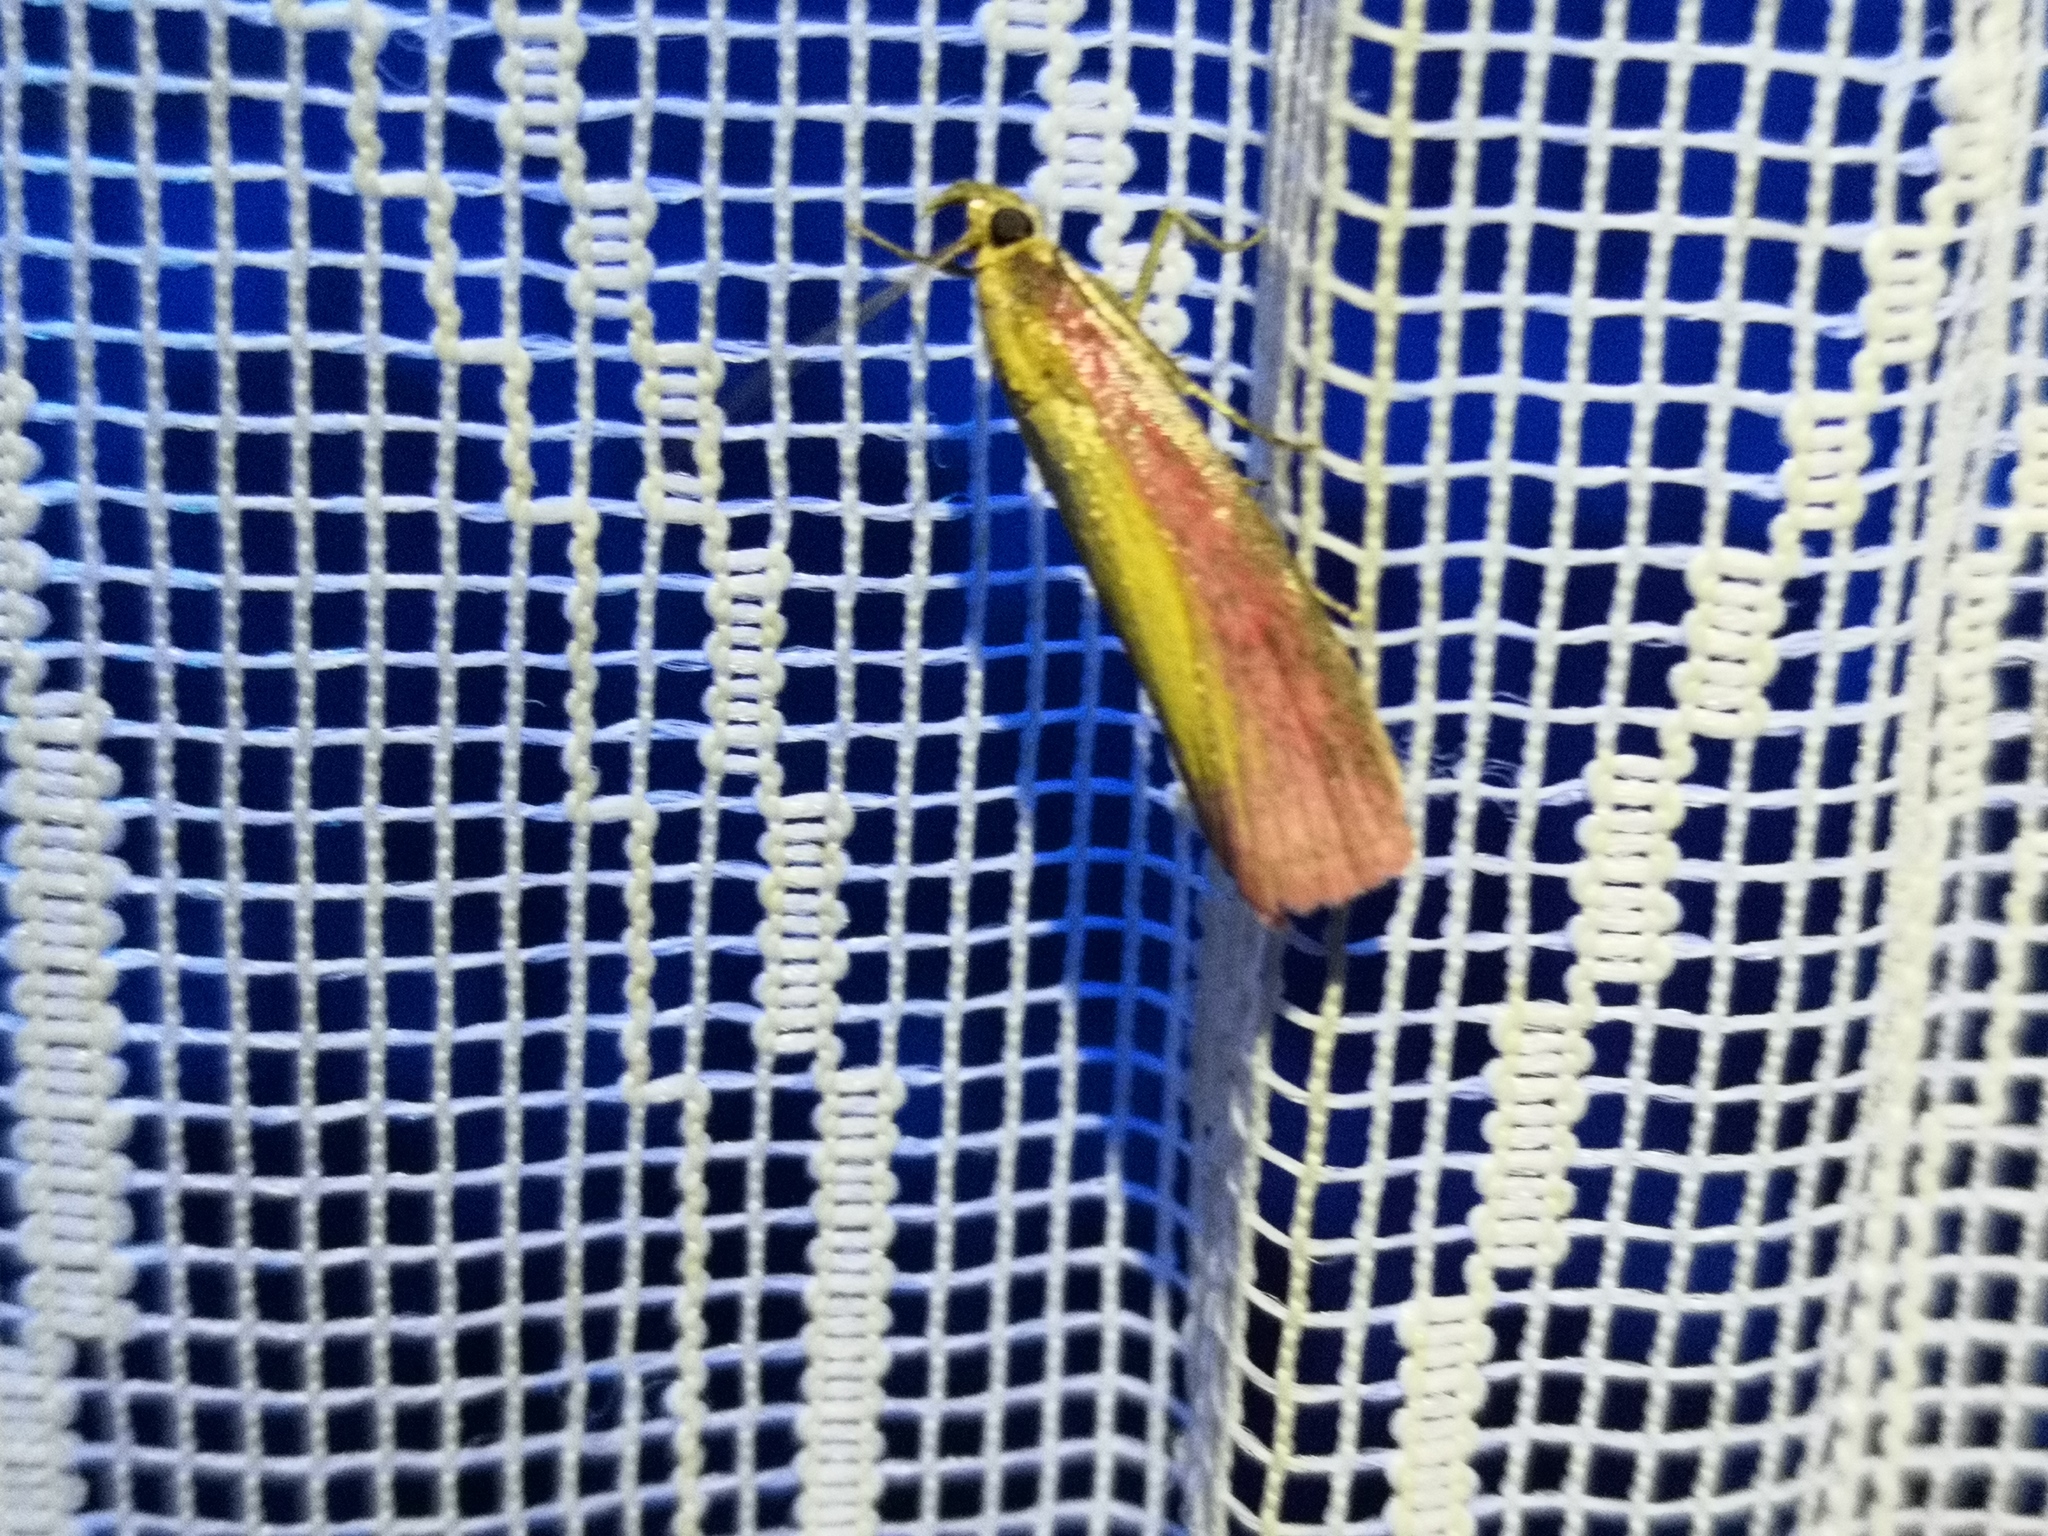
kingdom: Animalia
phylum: Arthropoda
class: Insecta
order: Lepidoptera
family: Pyralidae
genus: Oncocera
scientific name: Oncocera semirubella
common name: Rosy-striped knot-horn
